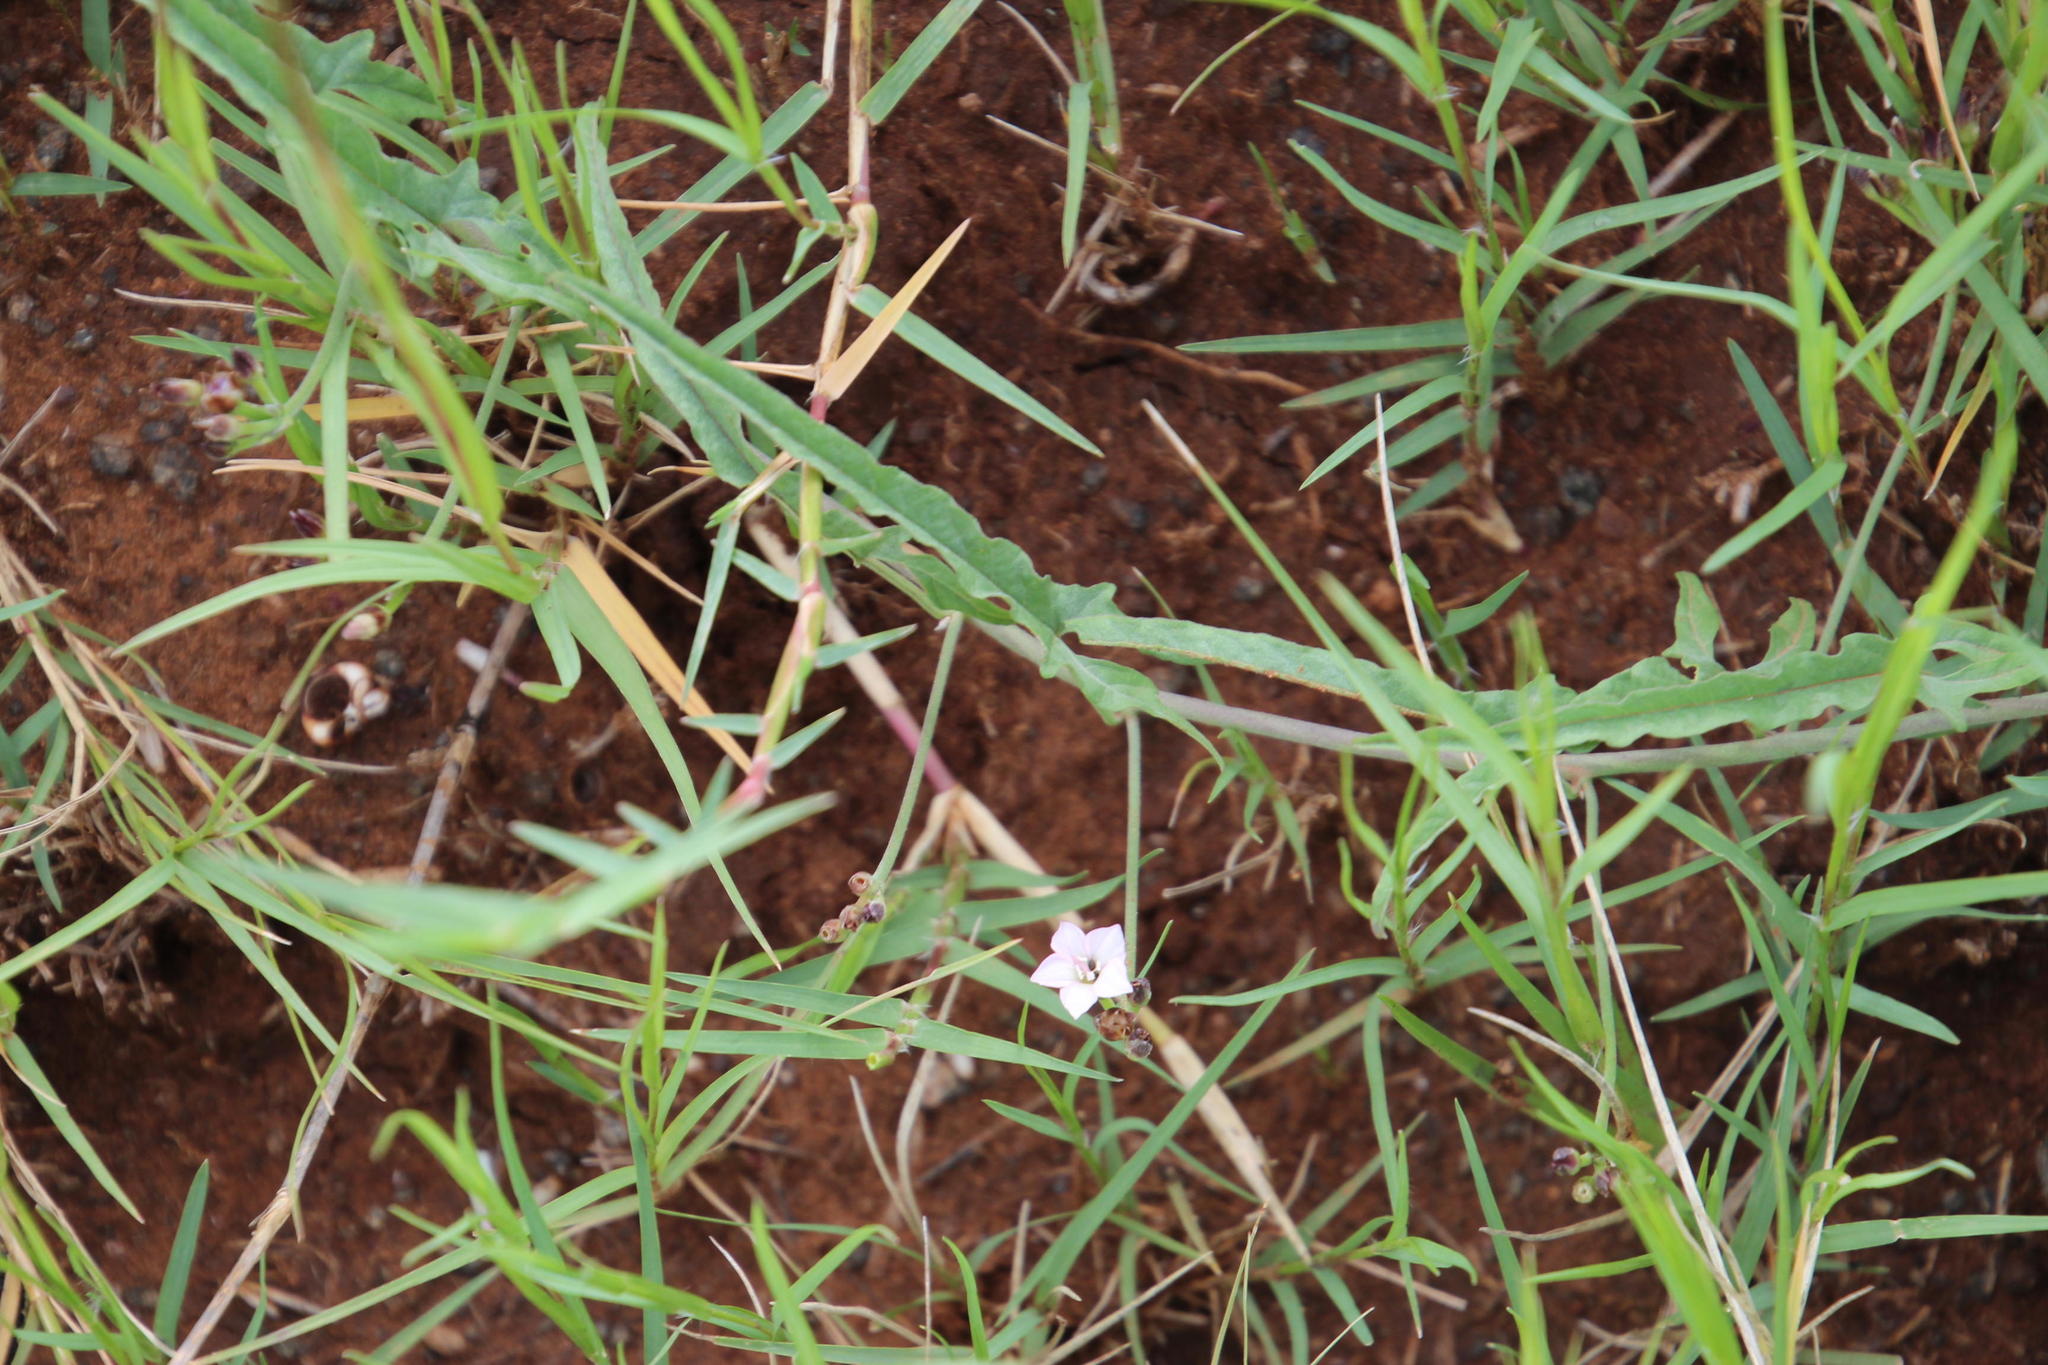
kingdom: Plantae
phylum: Tracheophyta
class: Magnoliopsida
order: Solanales
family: Convolvulaceae
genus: Convolvulus
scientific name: Convolvulus sagittatus
